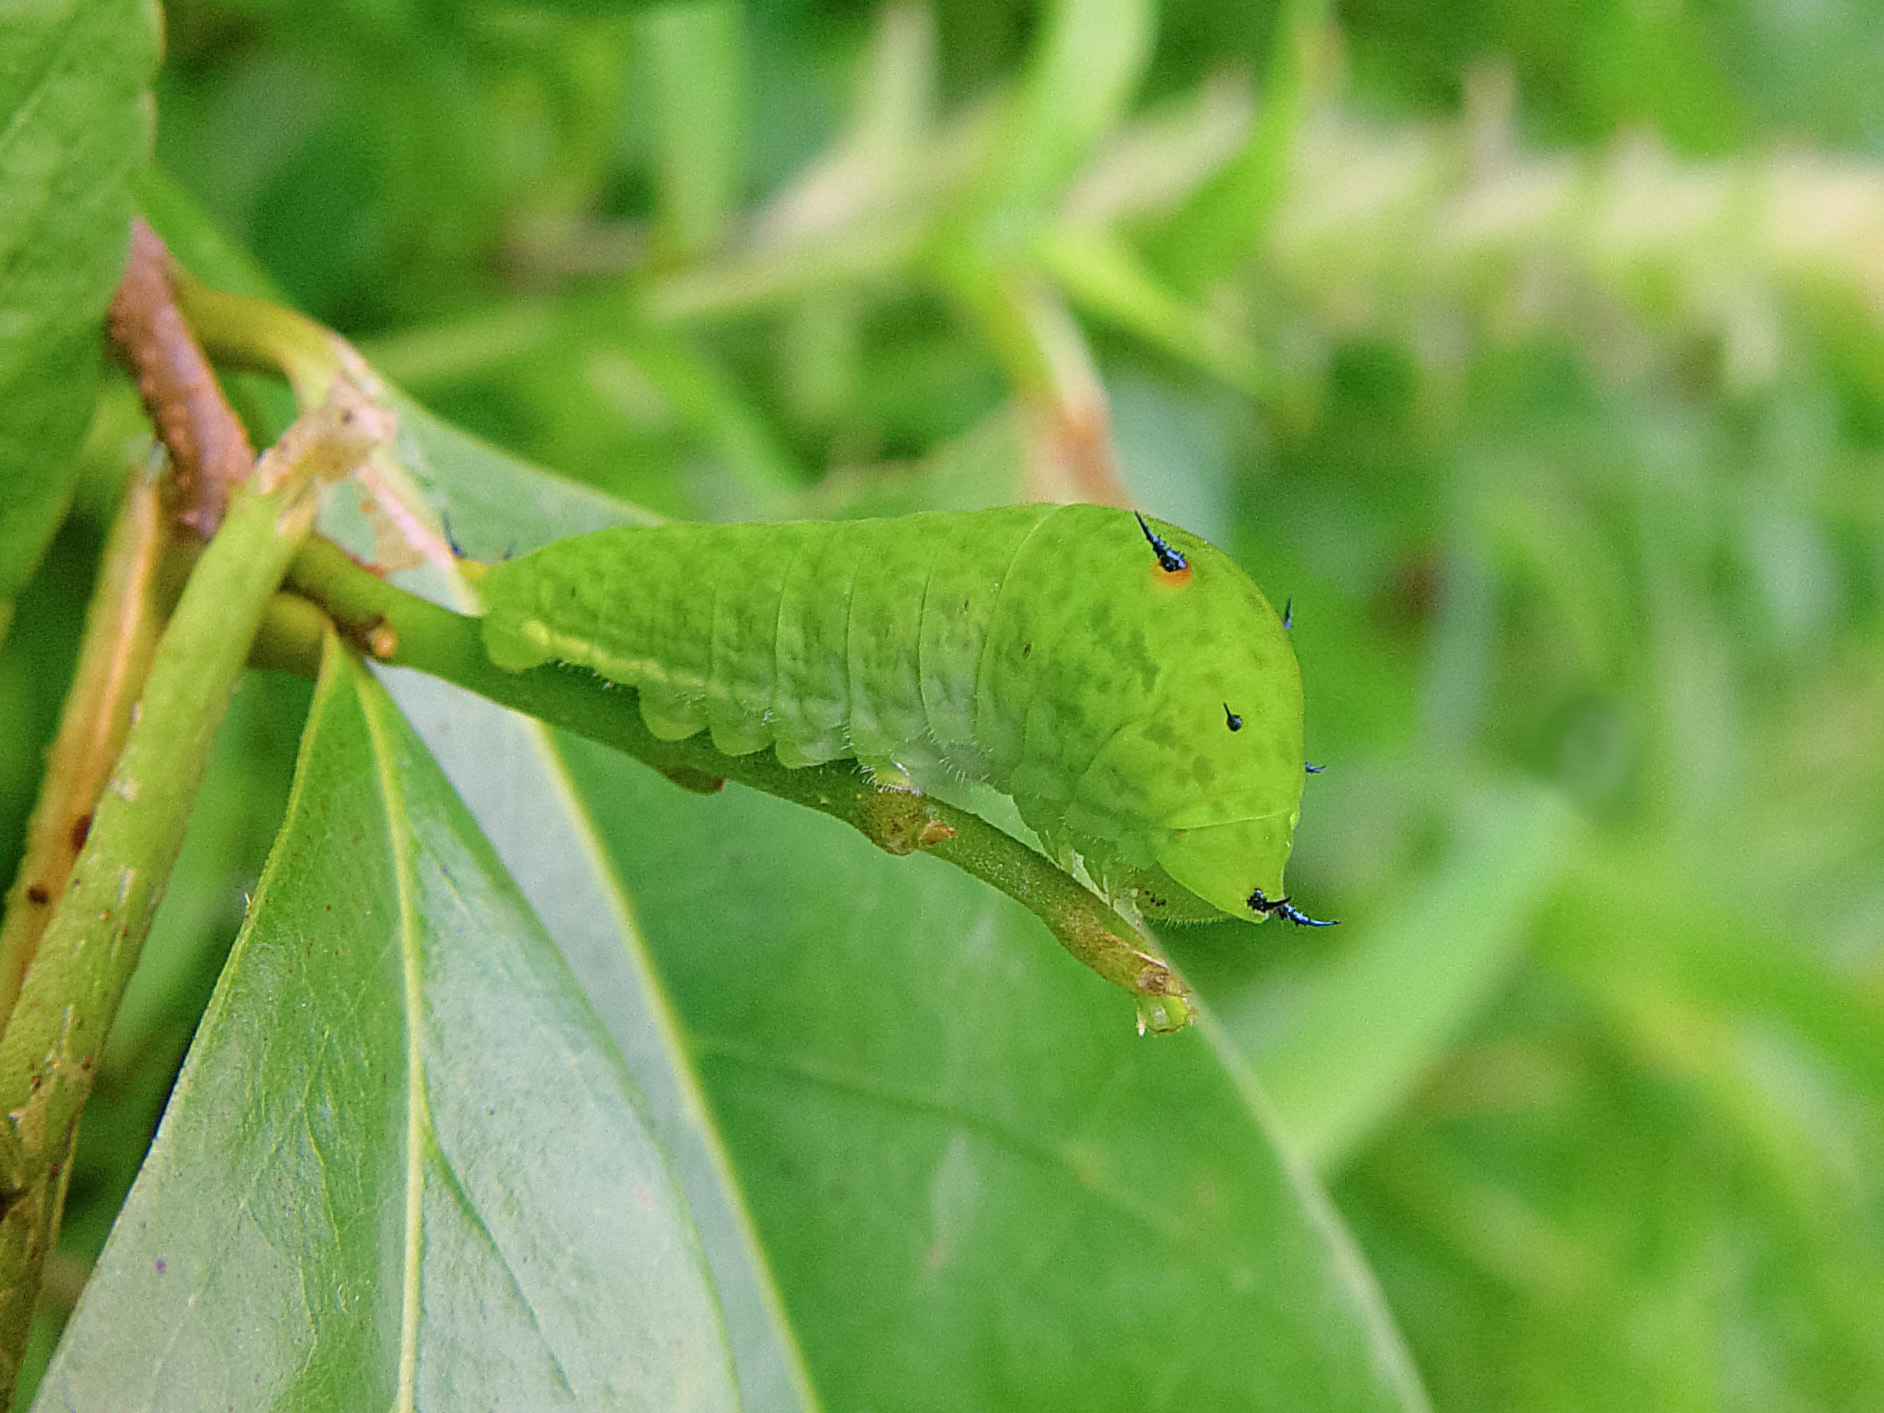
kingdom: Animalia
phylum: Arthropoda
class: Insecta
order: Lepidoptera
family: Papilionidae
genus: Graphium
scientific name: Graphium agamemnon
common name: Tailed jay
